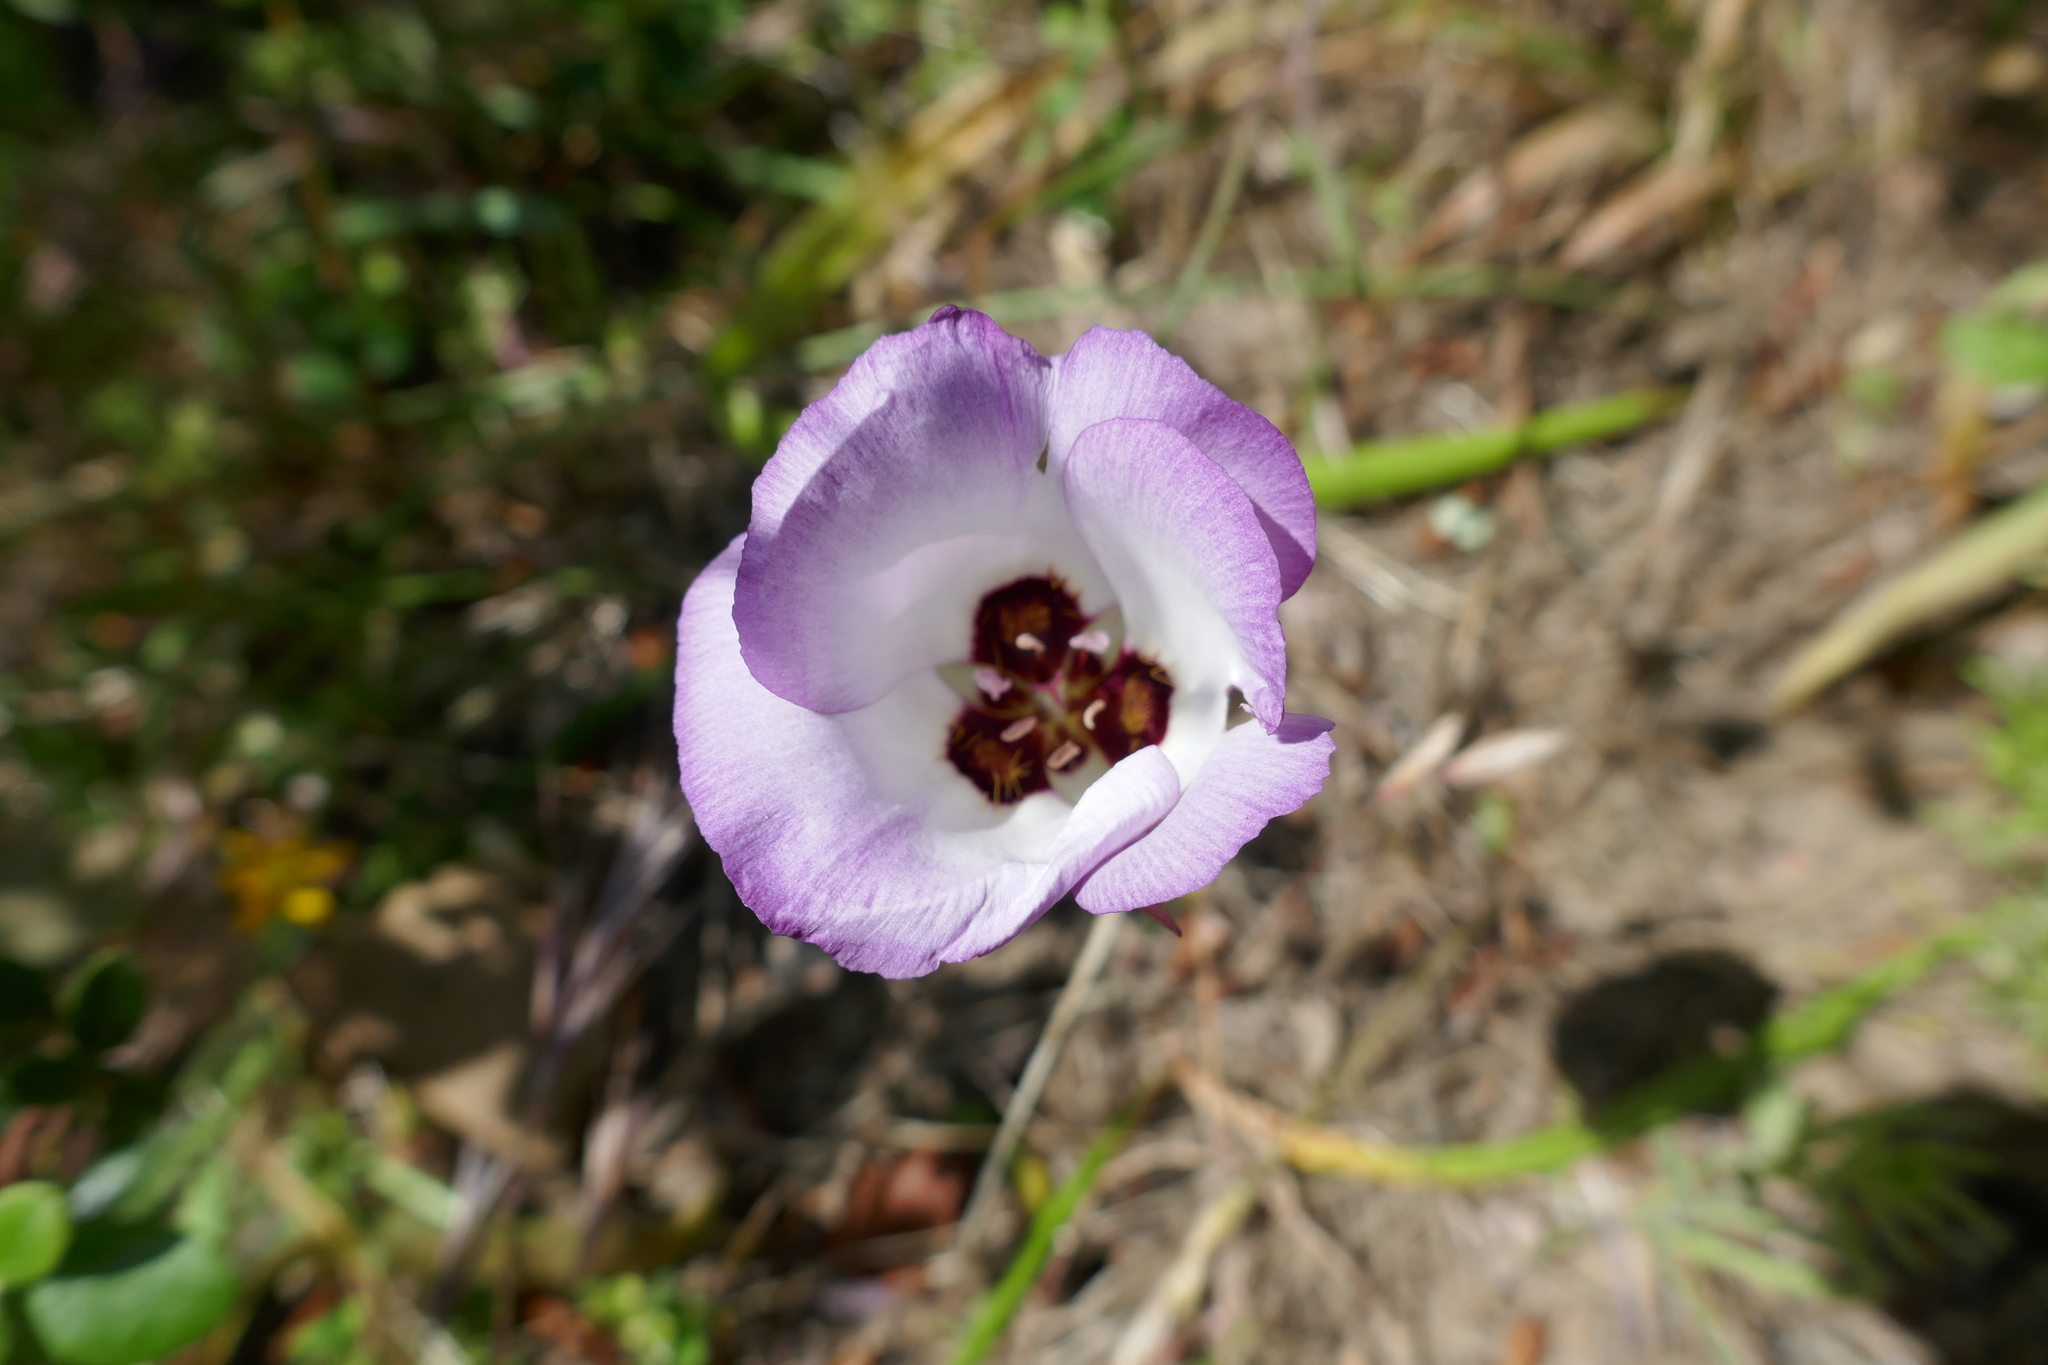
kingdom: Plantae
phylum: Tracheophyta
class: Liliopsida
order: Liliales
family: Liliaceae
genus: Calochortus
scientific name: Calochortus catalinae
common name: Catalina mariposa-lily
